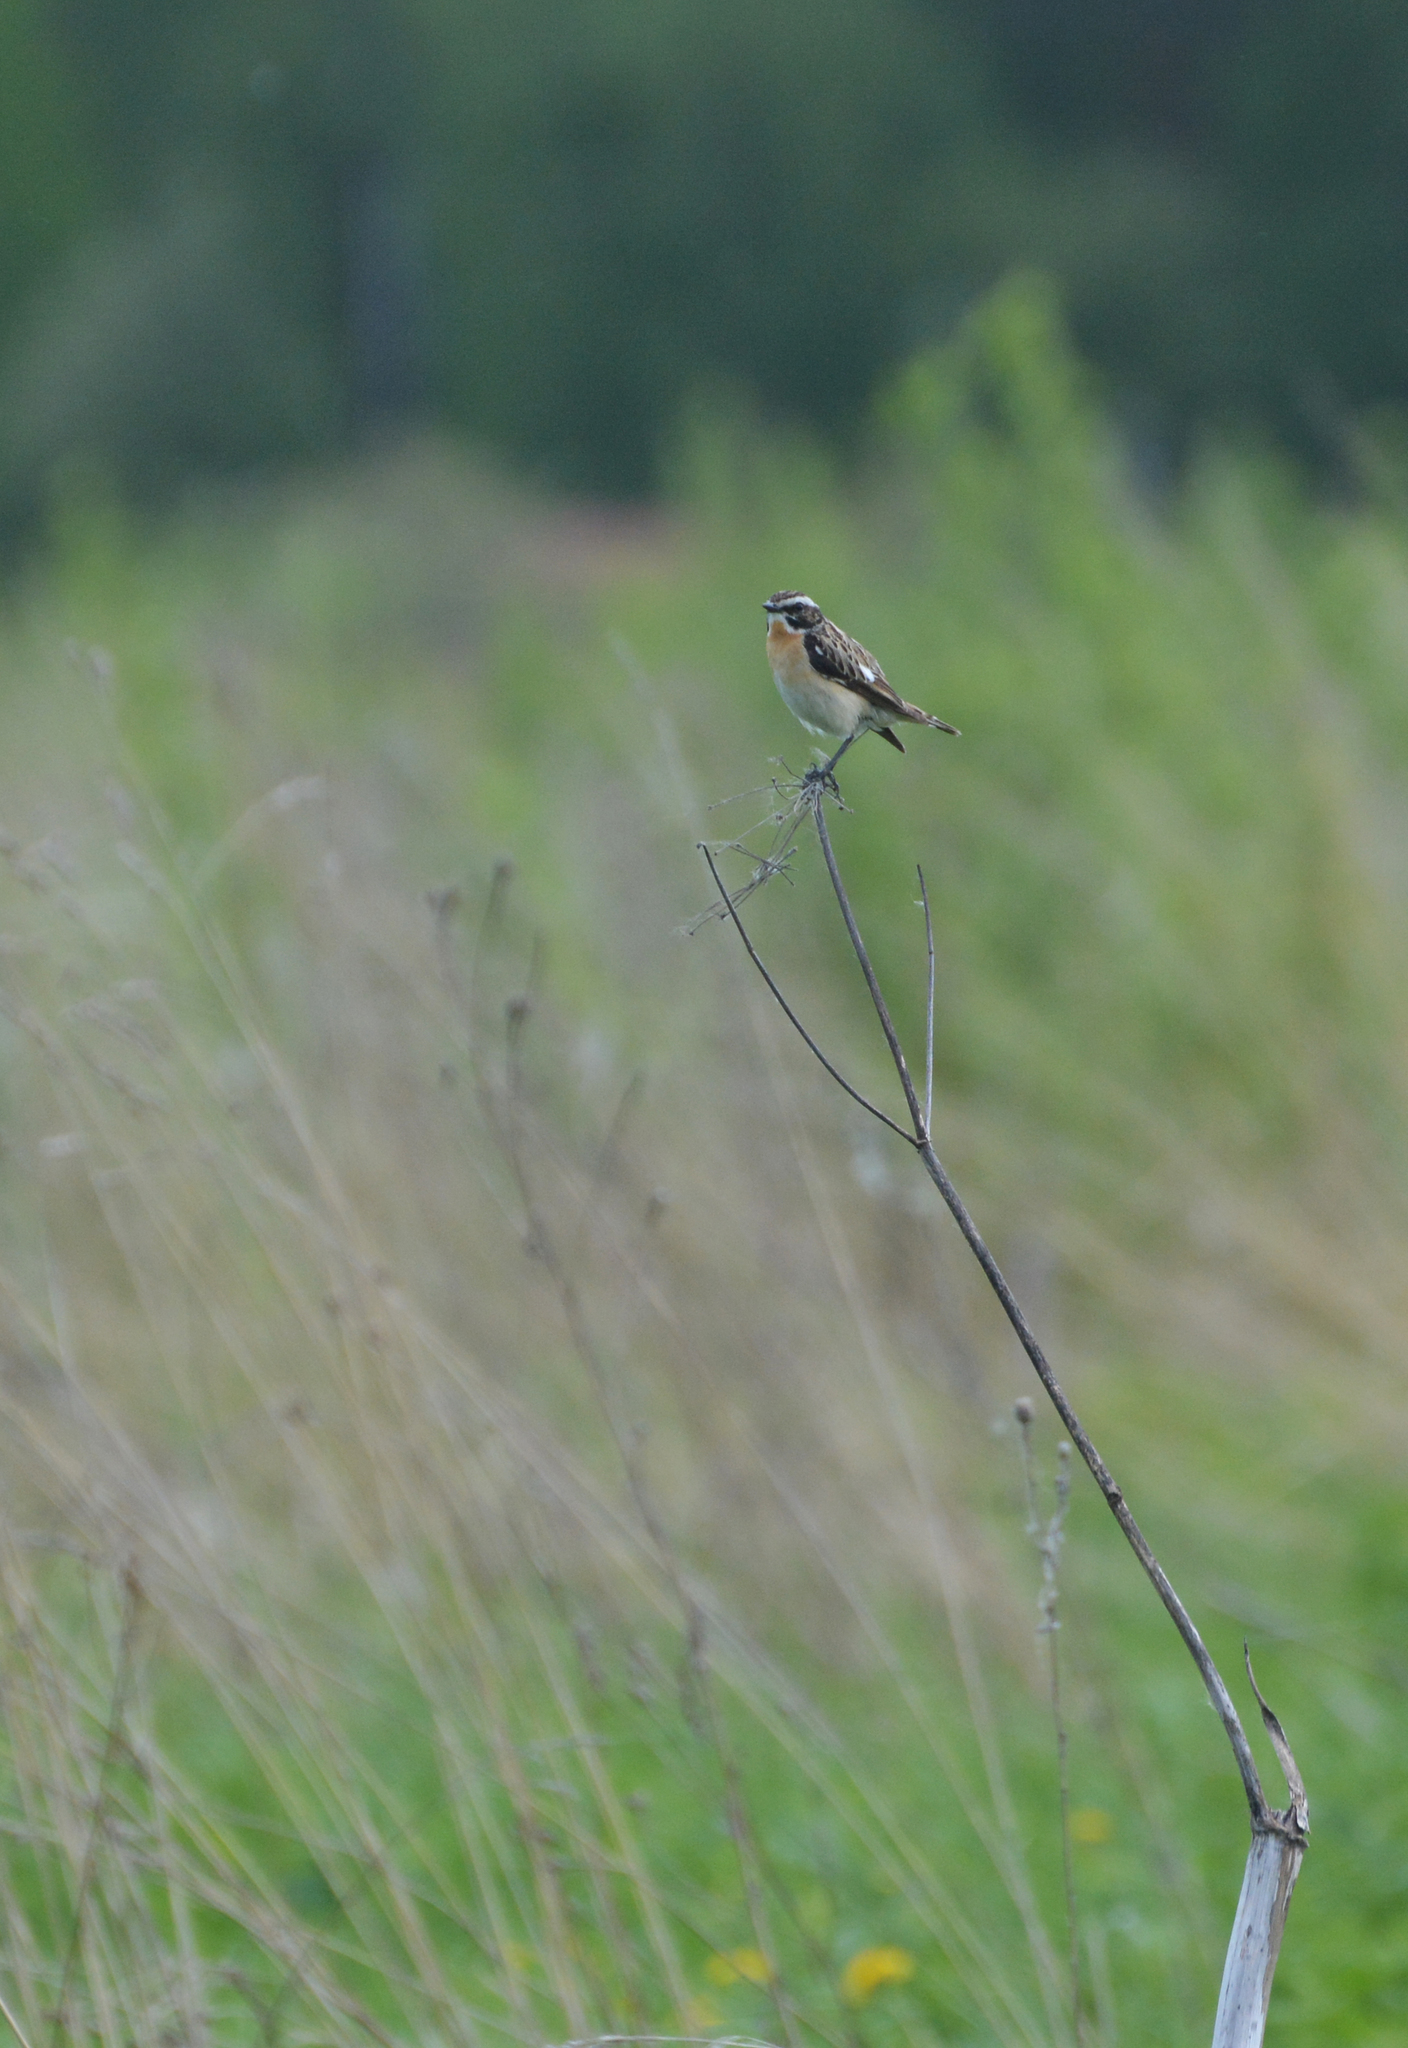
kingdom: Animalia
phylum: Chordata
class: Aves
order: Passeriformes
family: Muscicapidae
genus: Saxicola
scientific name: Saxicola rubetra
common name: Whinchat
